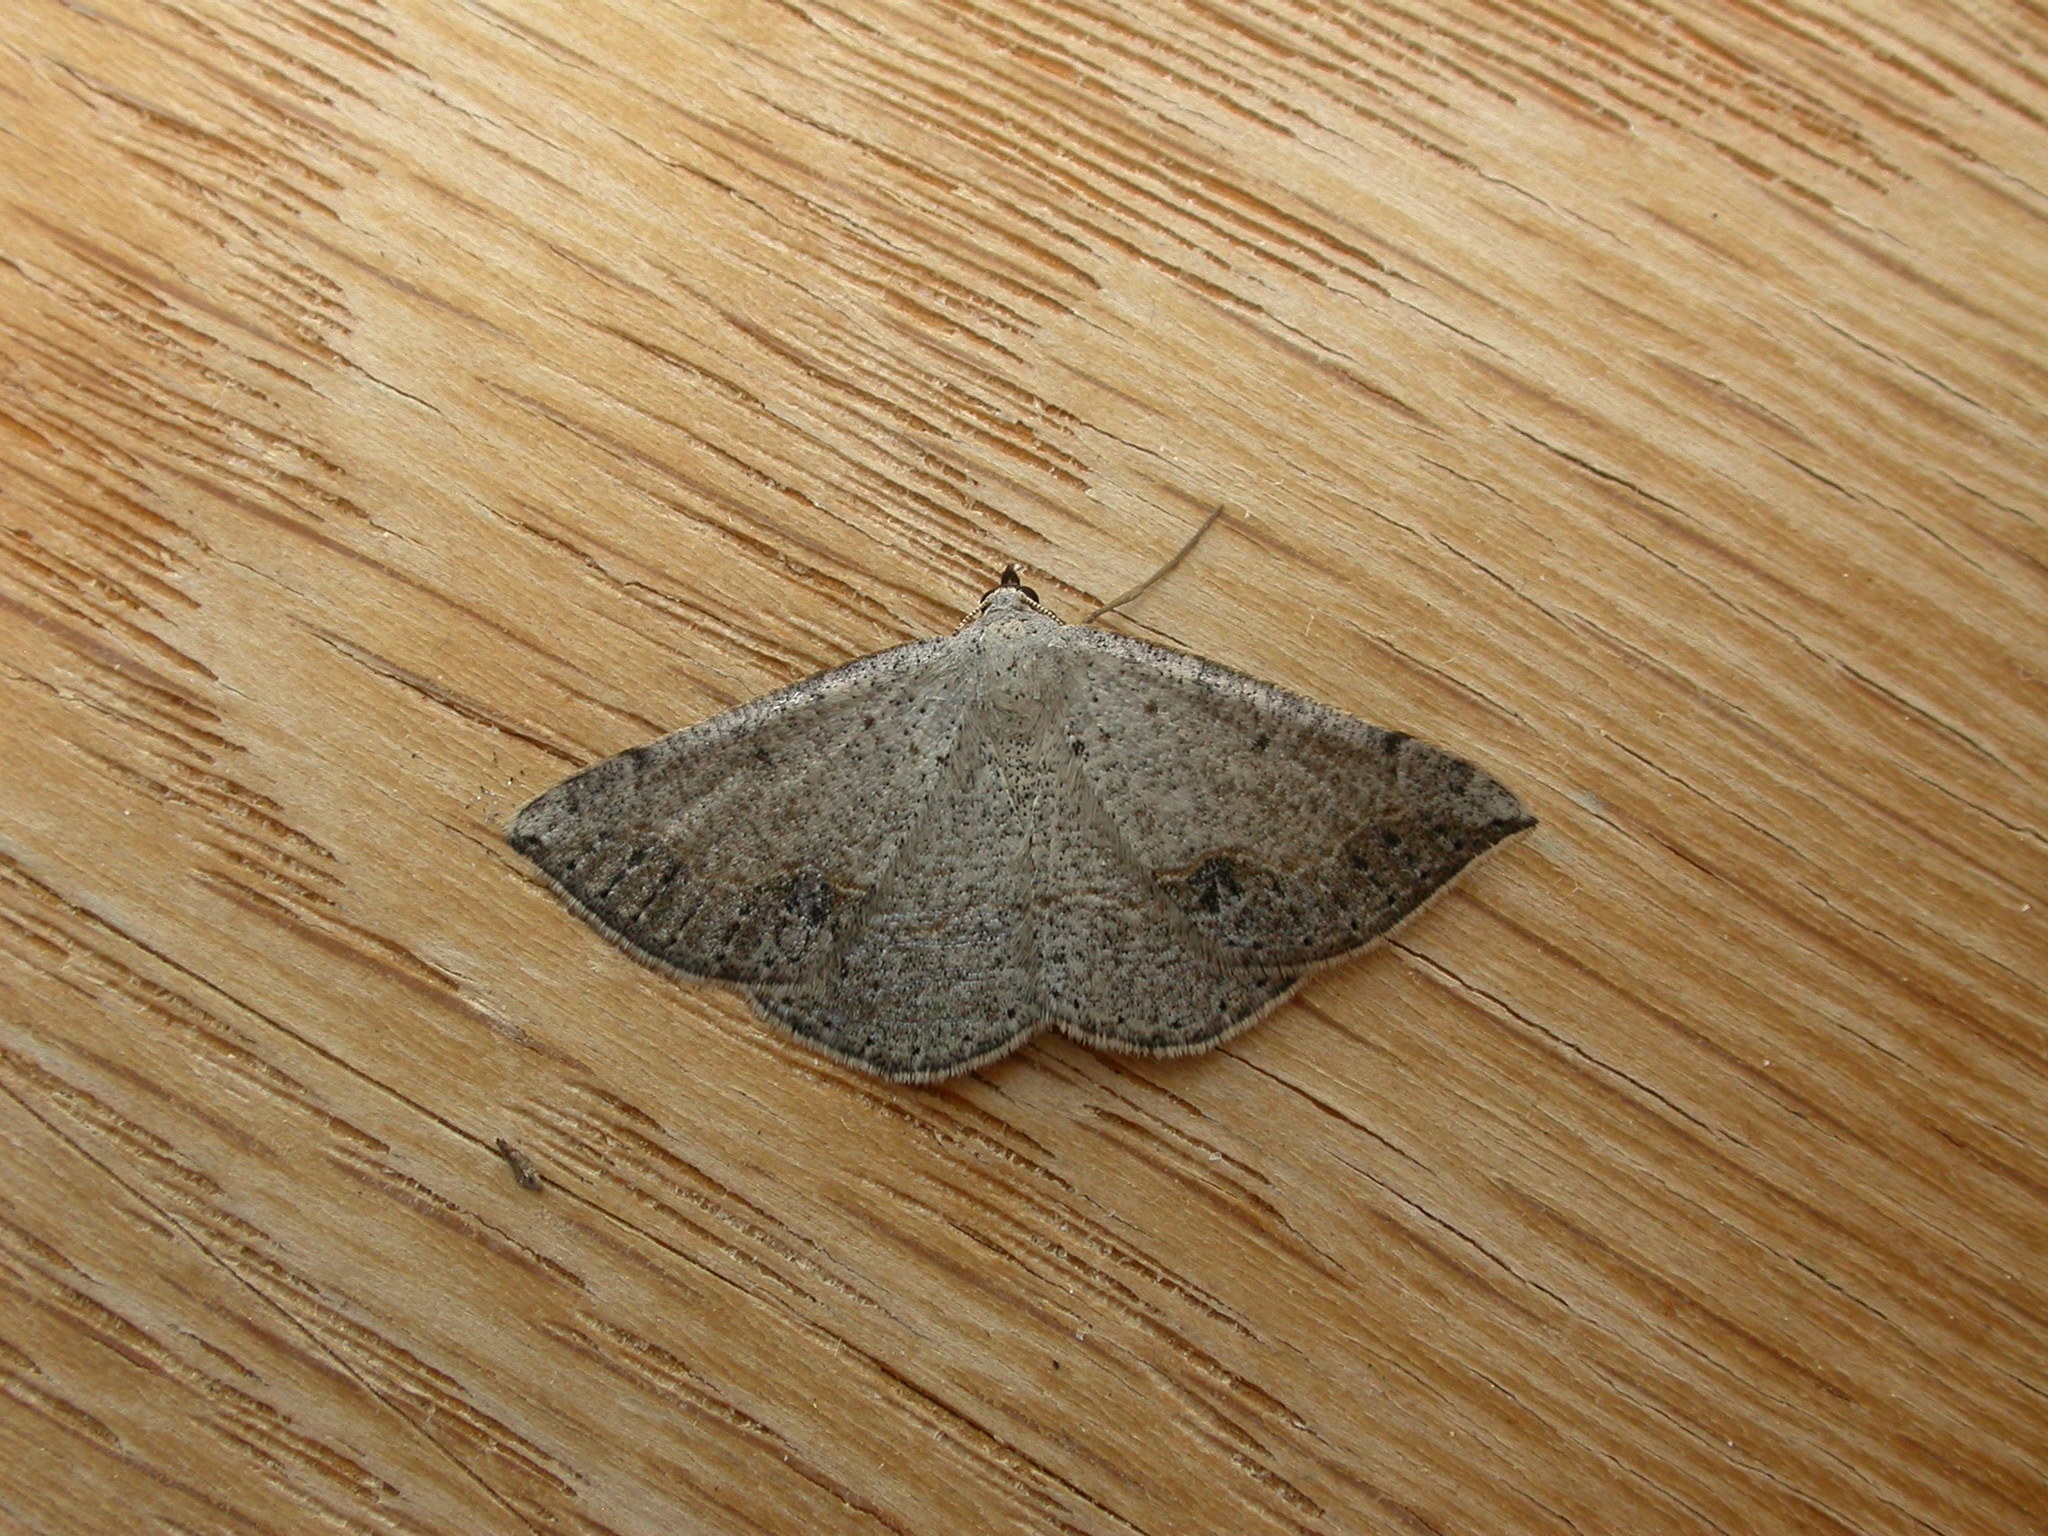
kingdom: Animalia
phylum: Arthropoda
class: Insecta
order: Lepidoptera
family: Geometridae
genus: Taxeotis
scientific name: Taxeotis intextata
